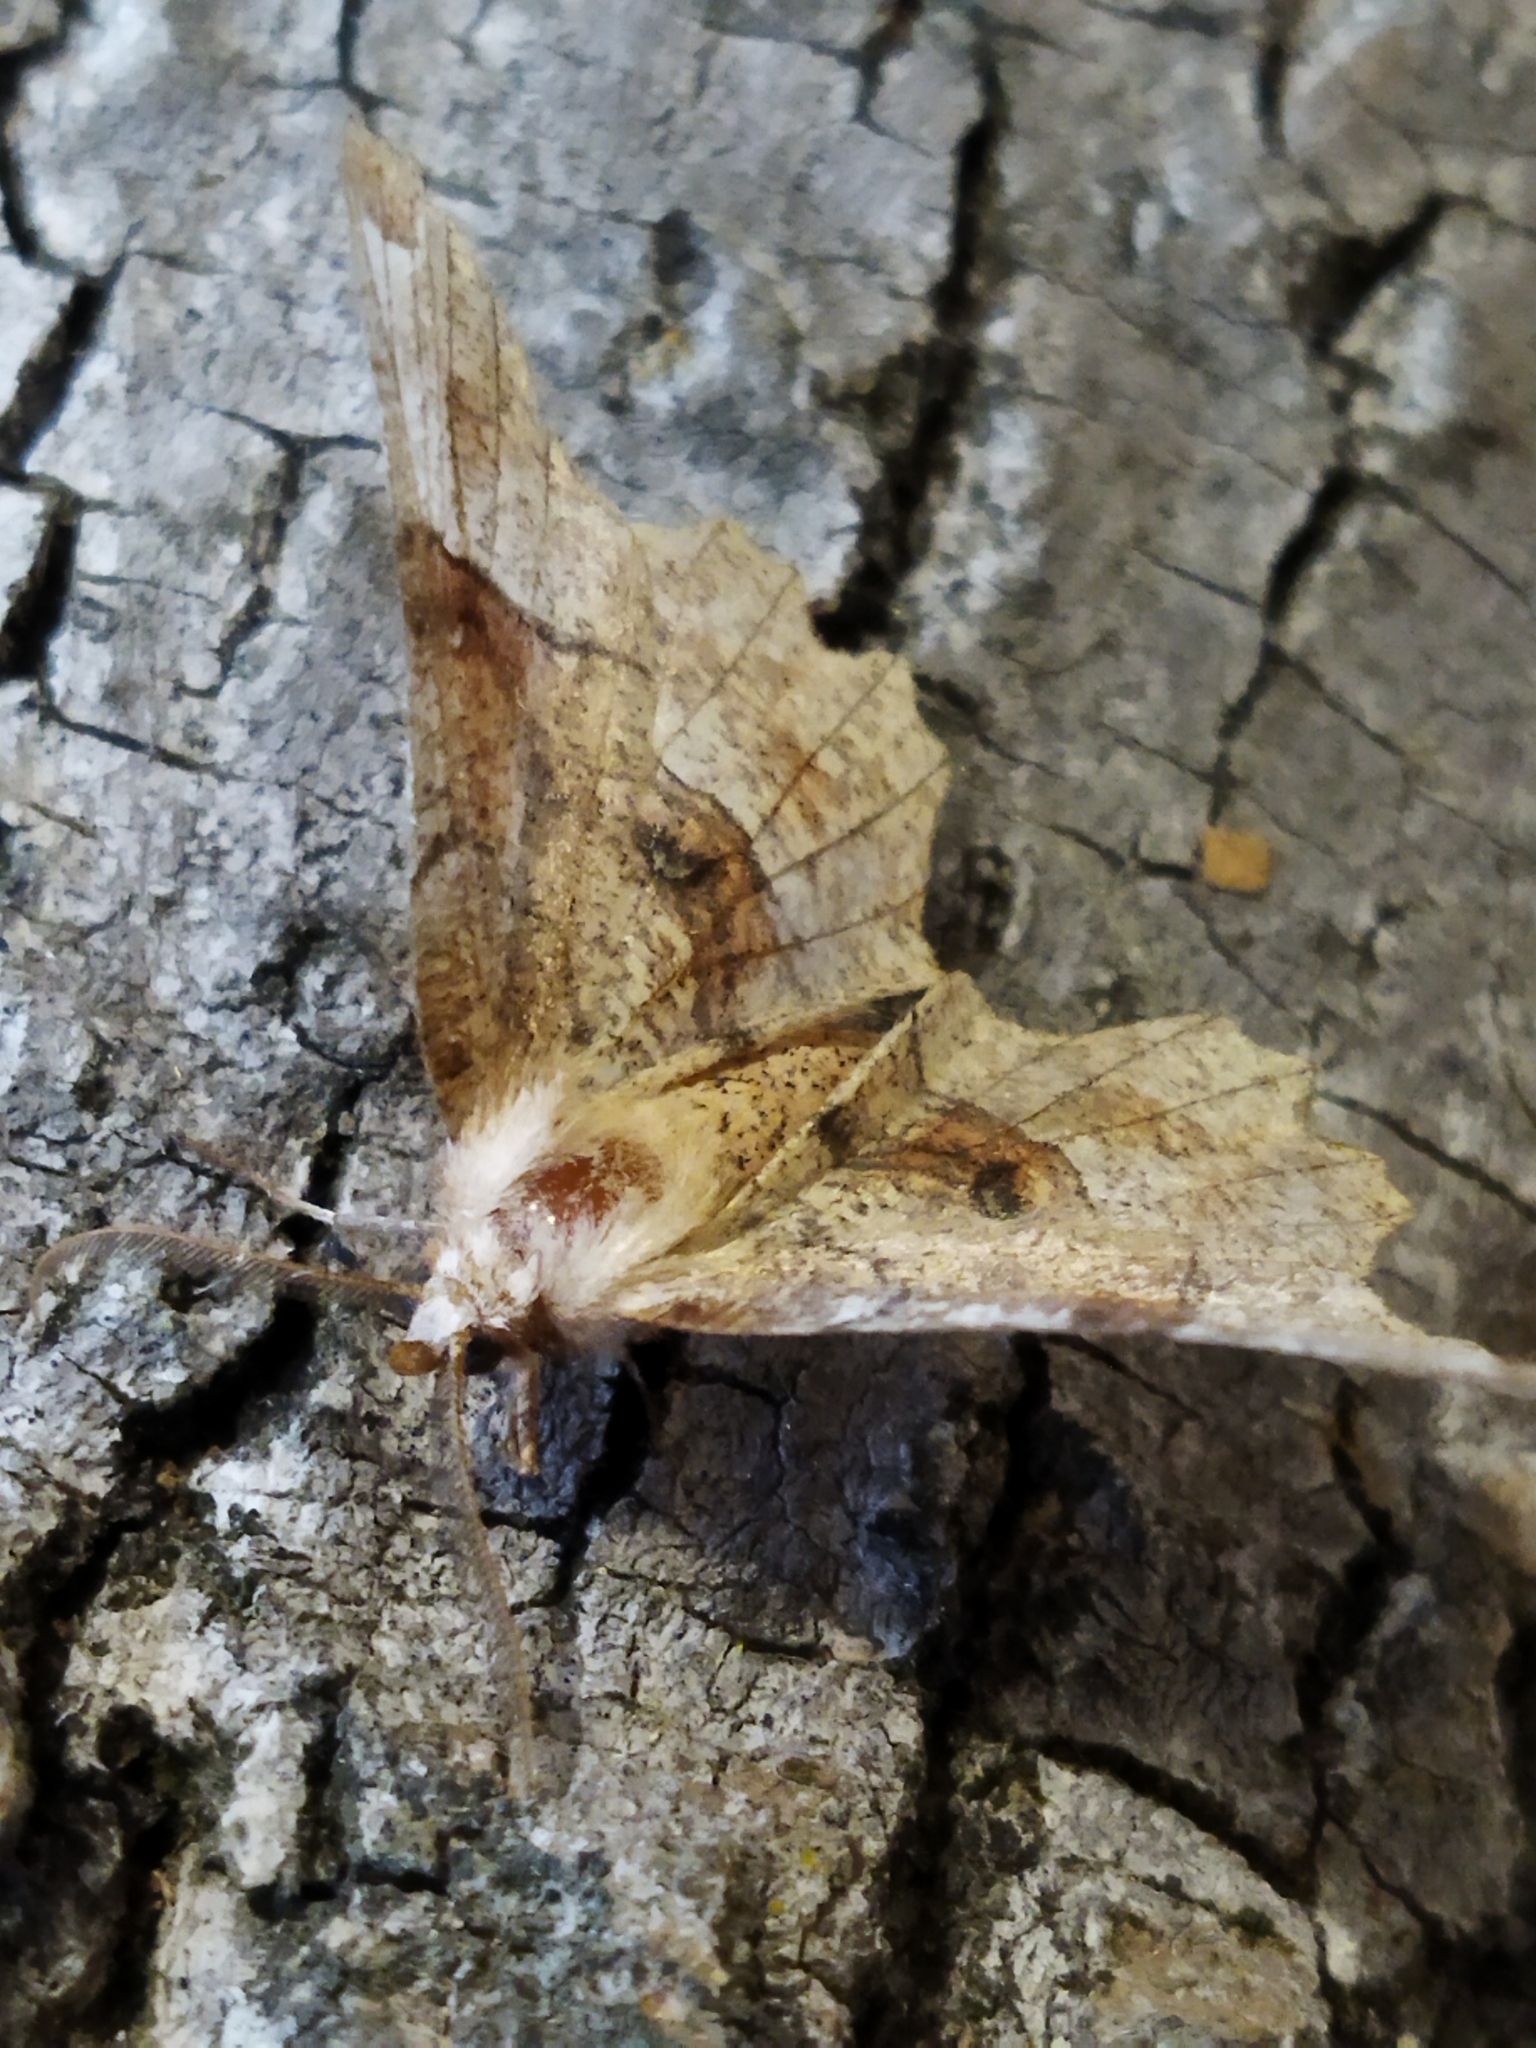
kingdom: Animalia
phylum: Arthropoda
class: Insecta
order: Lepidoptera
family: Geometridae
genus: Selenia
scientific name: Selenia lunularia
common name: Lunar thorn
